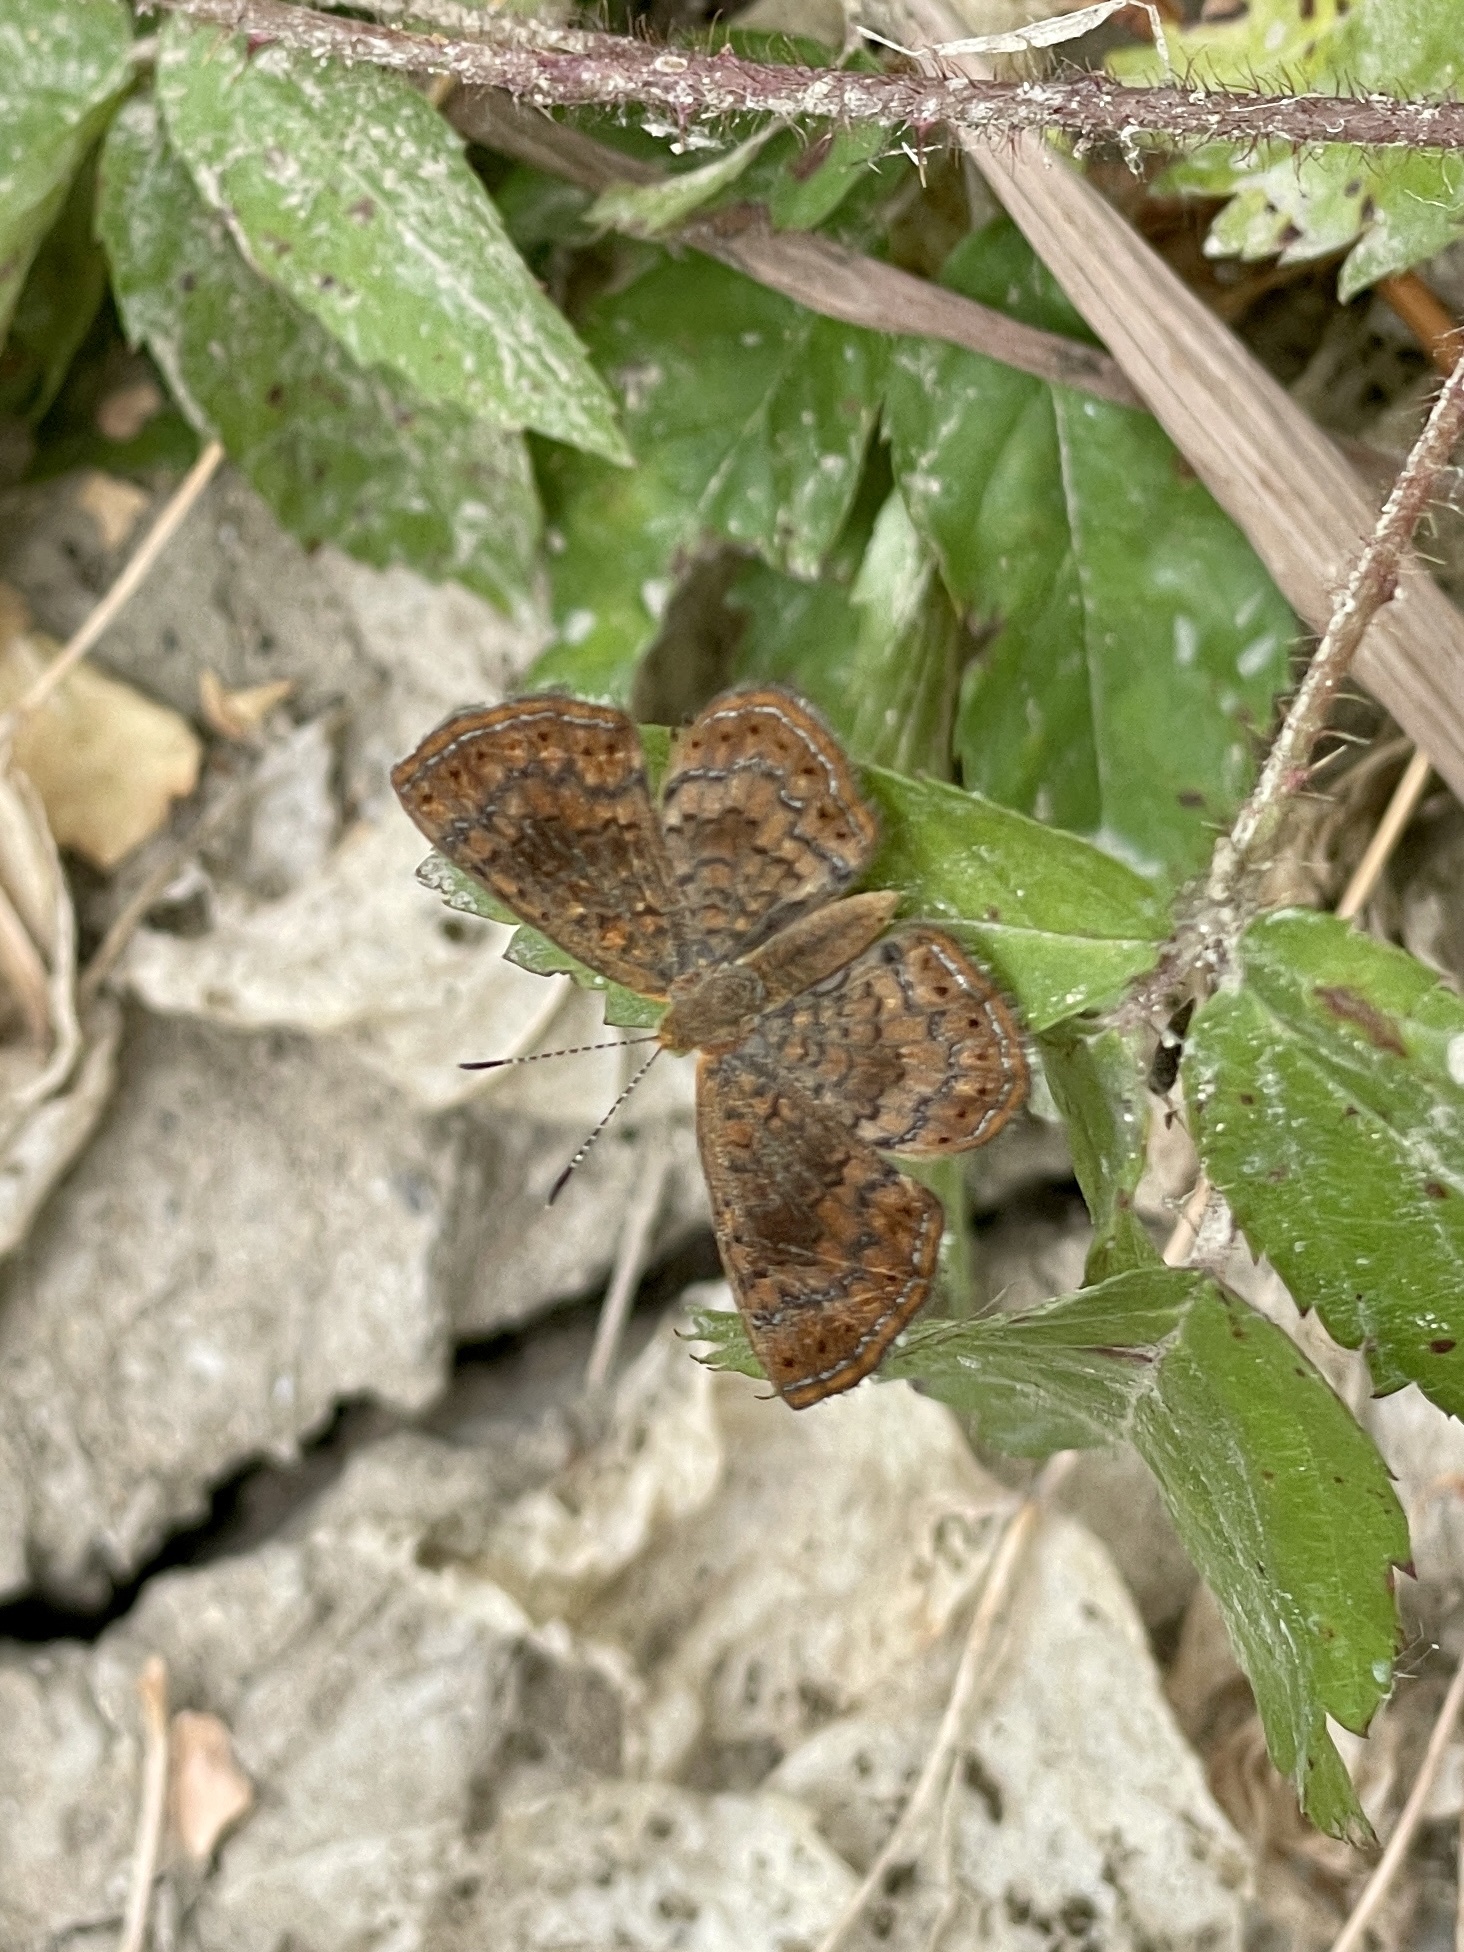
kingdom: Animalia
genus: Calephelis
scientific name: Calephelis nemesis
